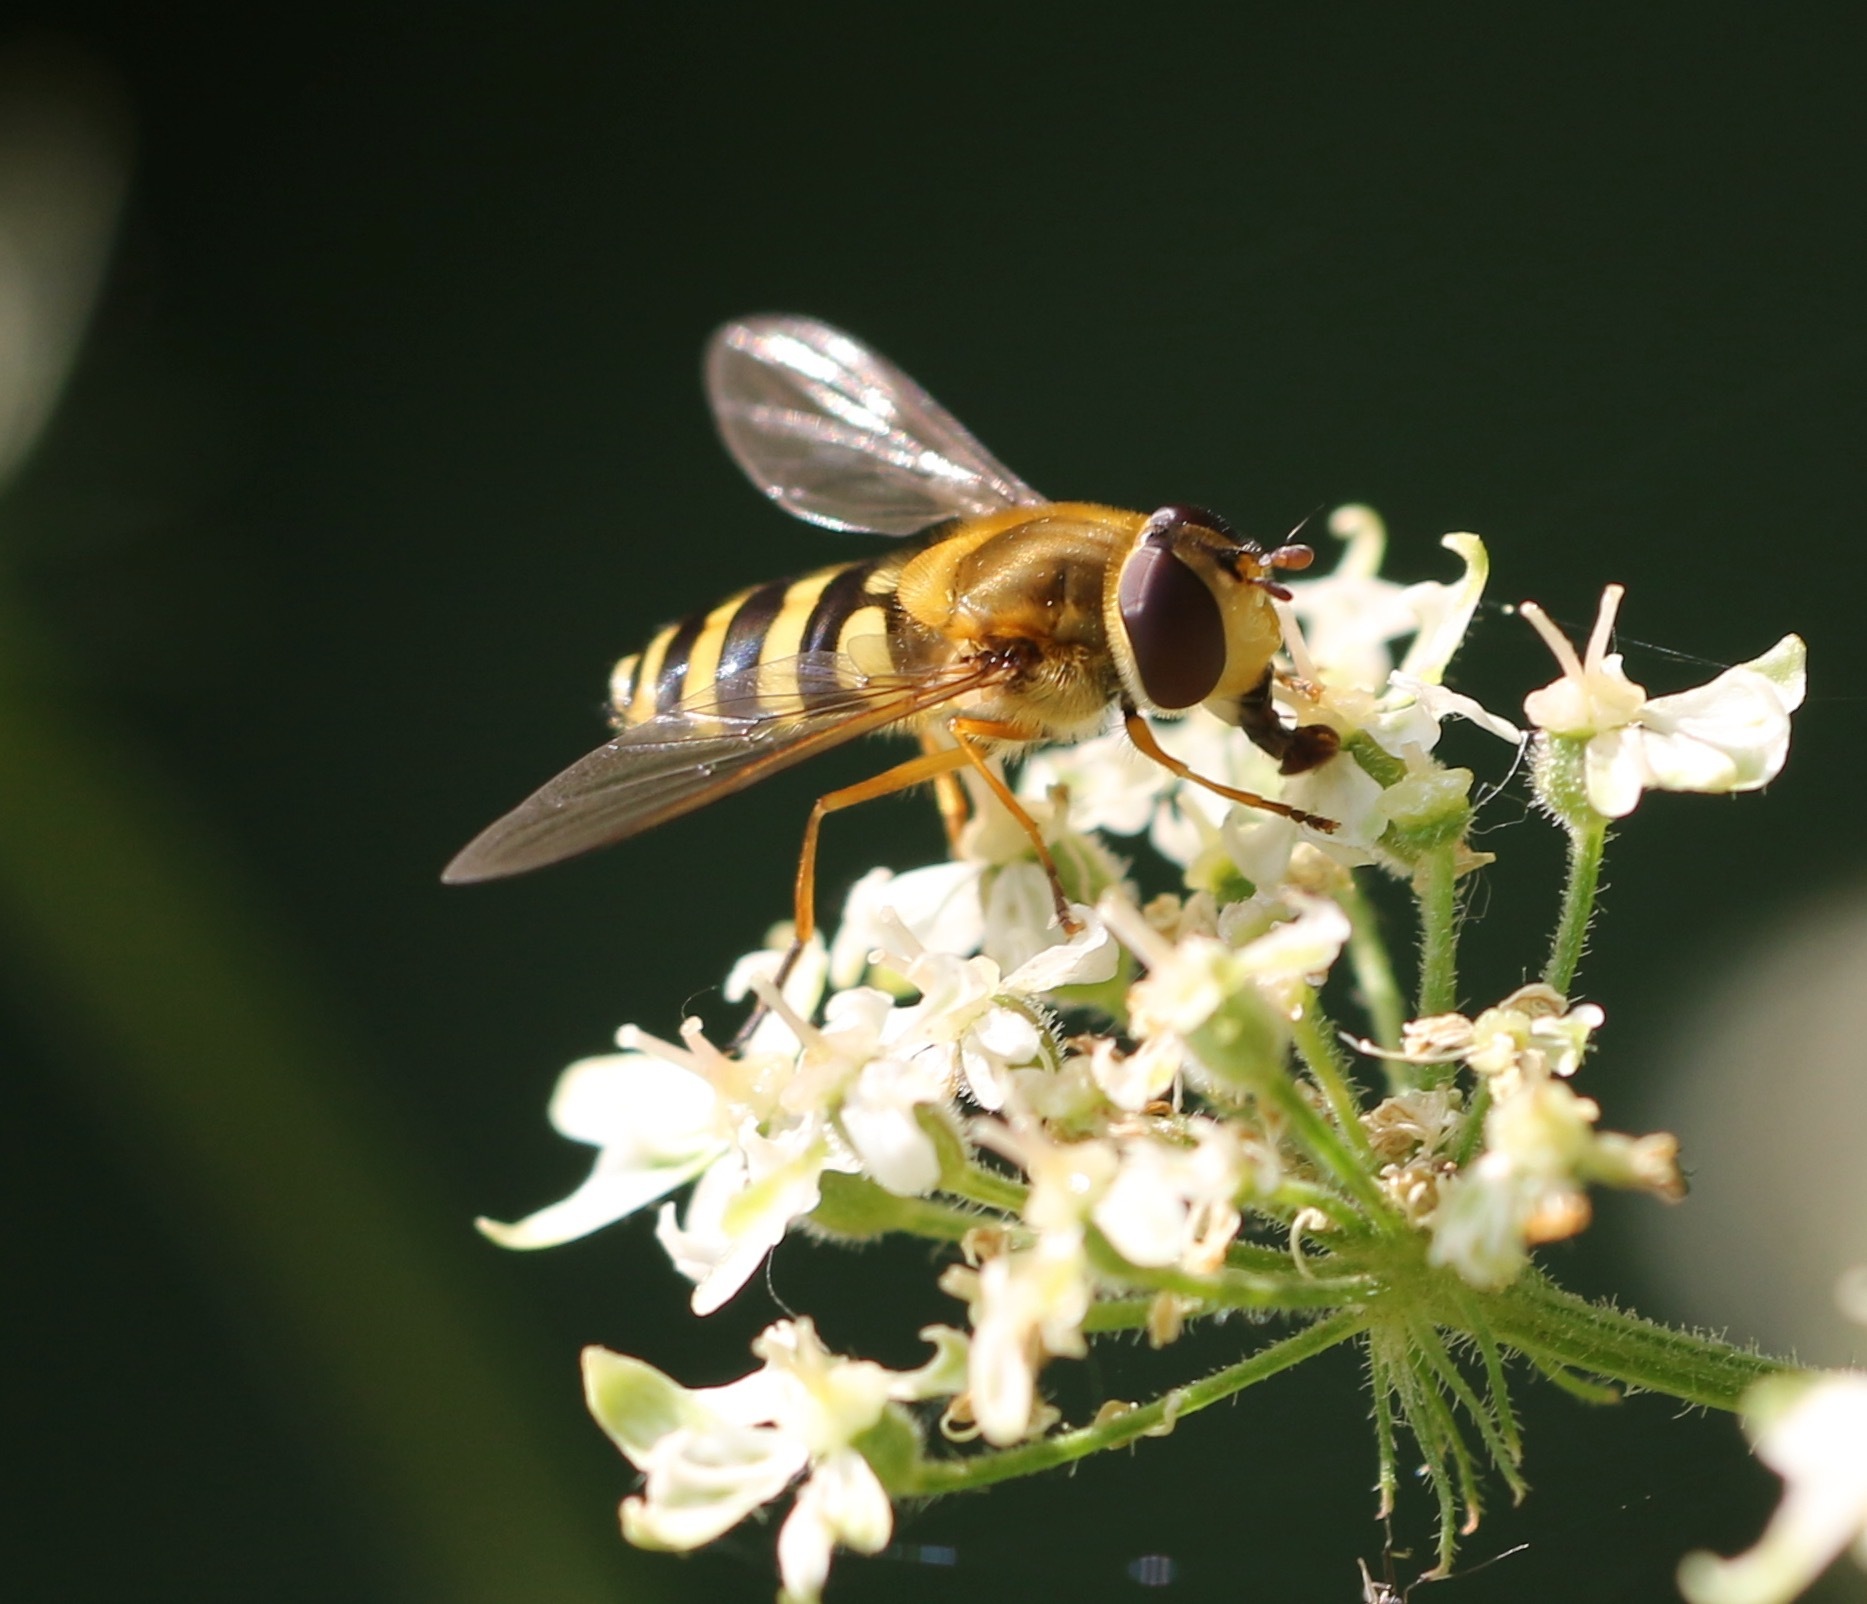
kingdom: Animalia
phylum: Arthropoda
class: Insecta
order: Diptera
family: Syrphidae
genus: Syrphus
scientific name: Syrphus ribesii
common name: Common flower fly
